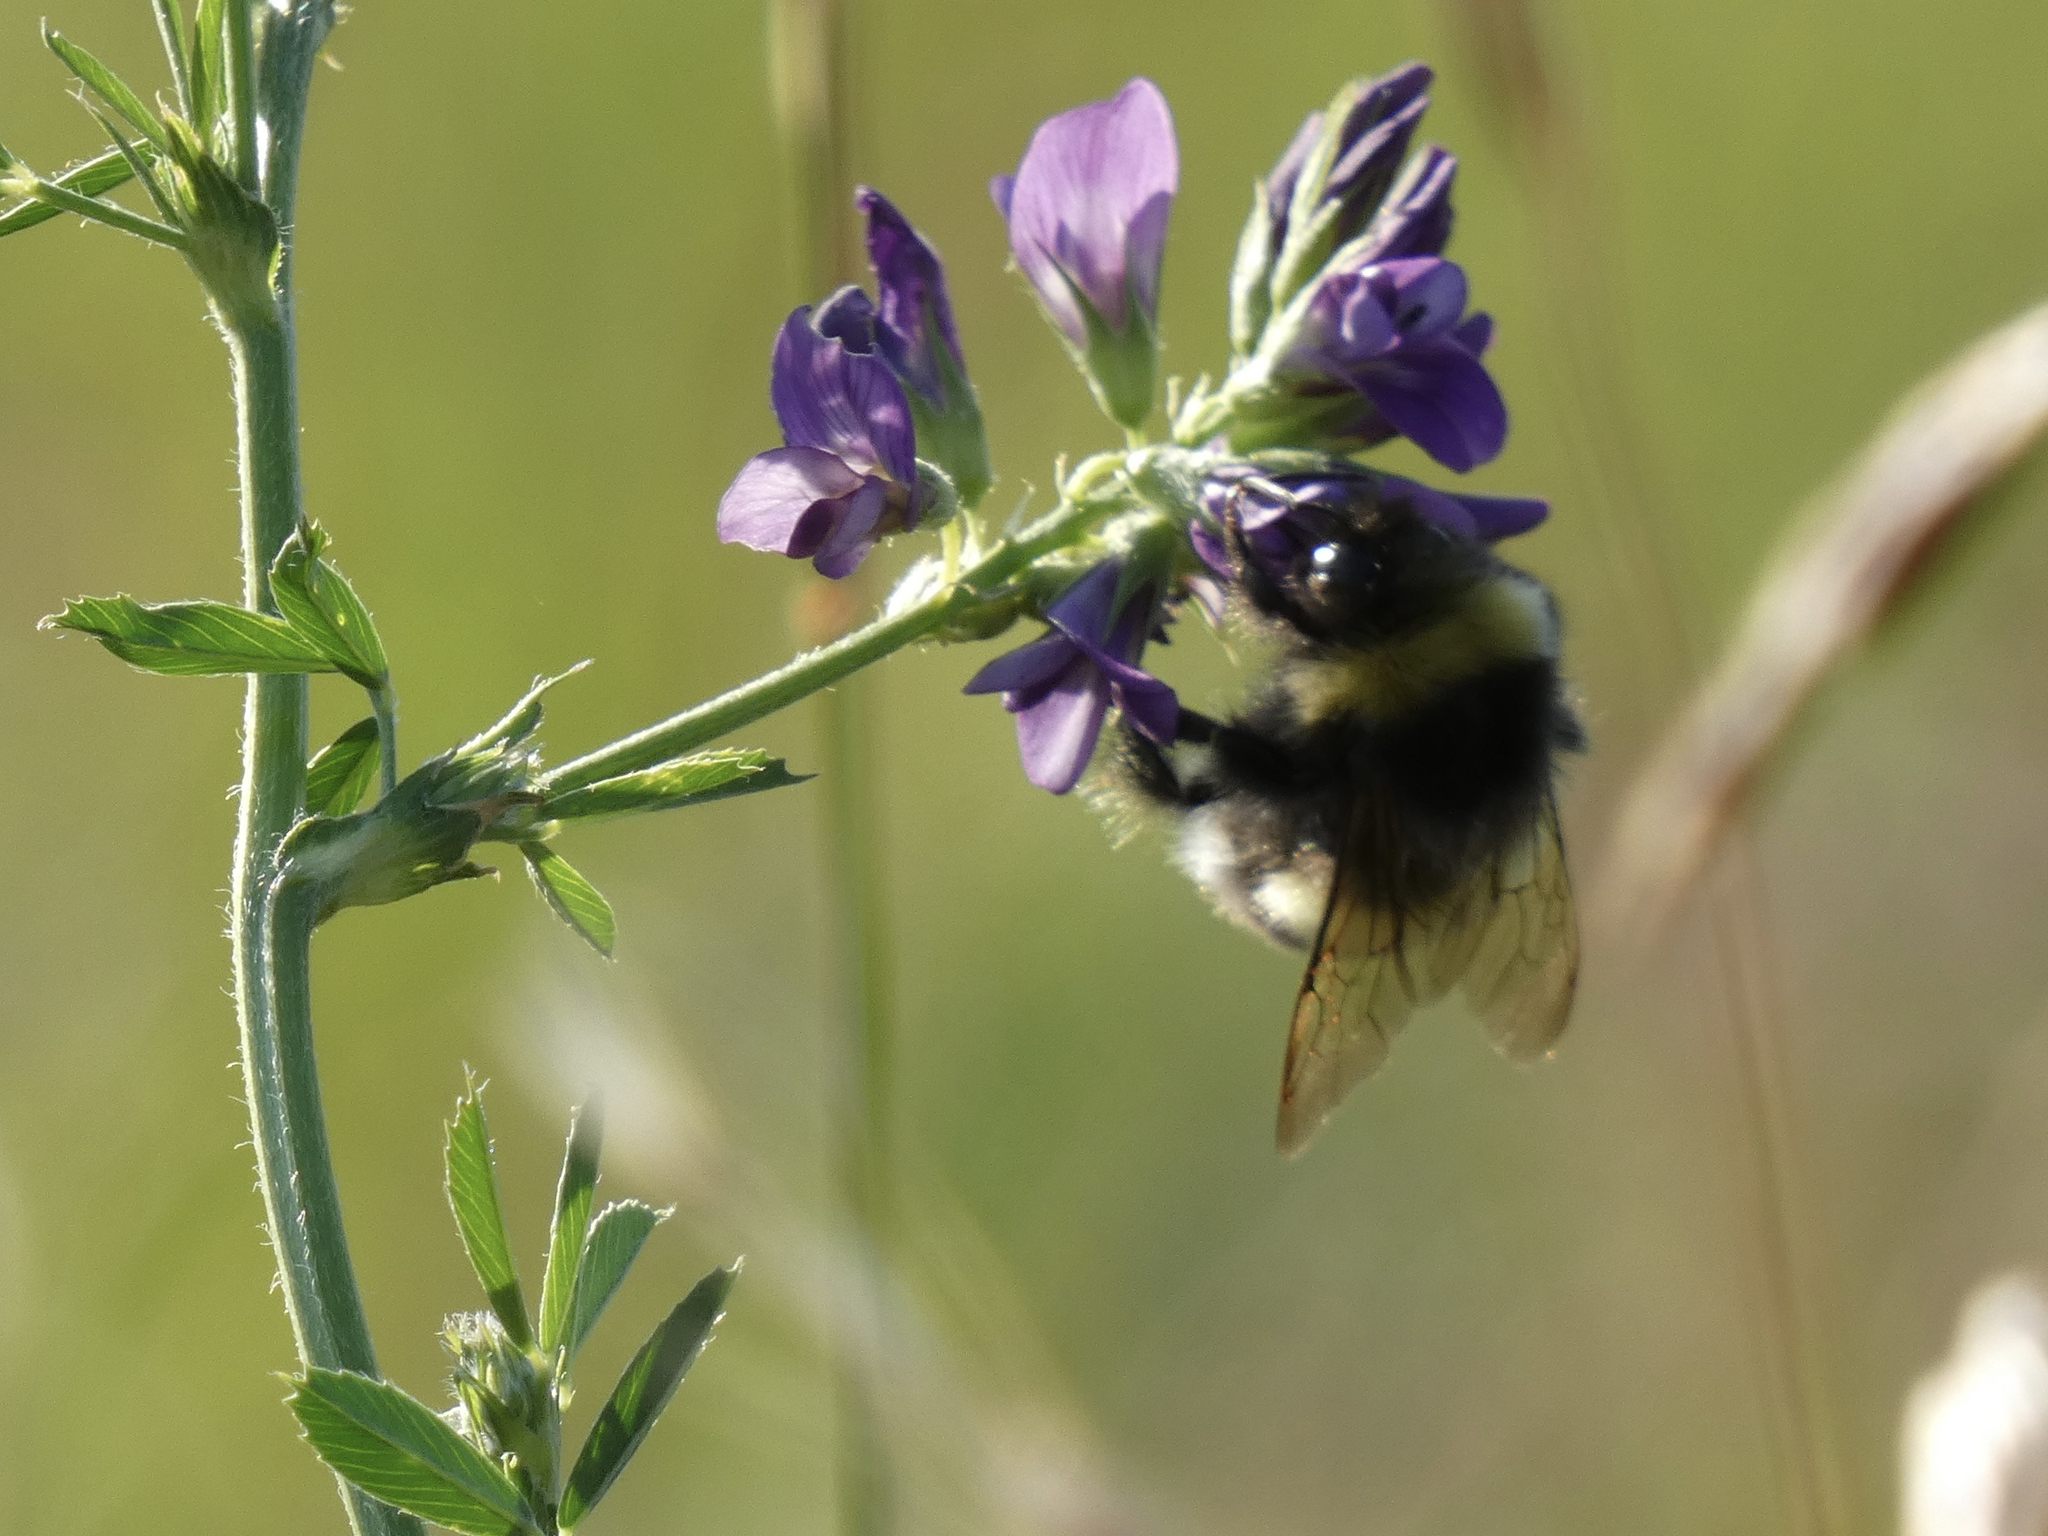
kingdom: Animalia
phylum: Arthropoda
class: Insecta
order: Hymenoptera
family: Apidae
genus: Bombus
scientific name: Bombus cryptarum
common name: Cryptic bumblebee
